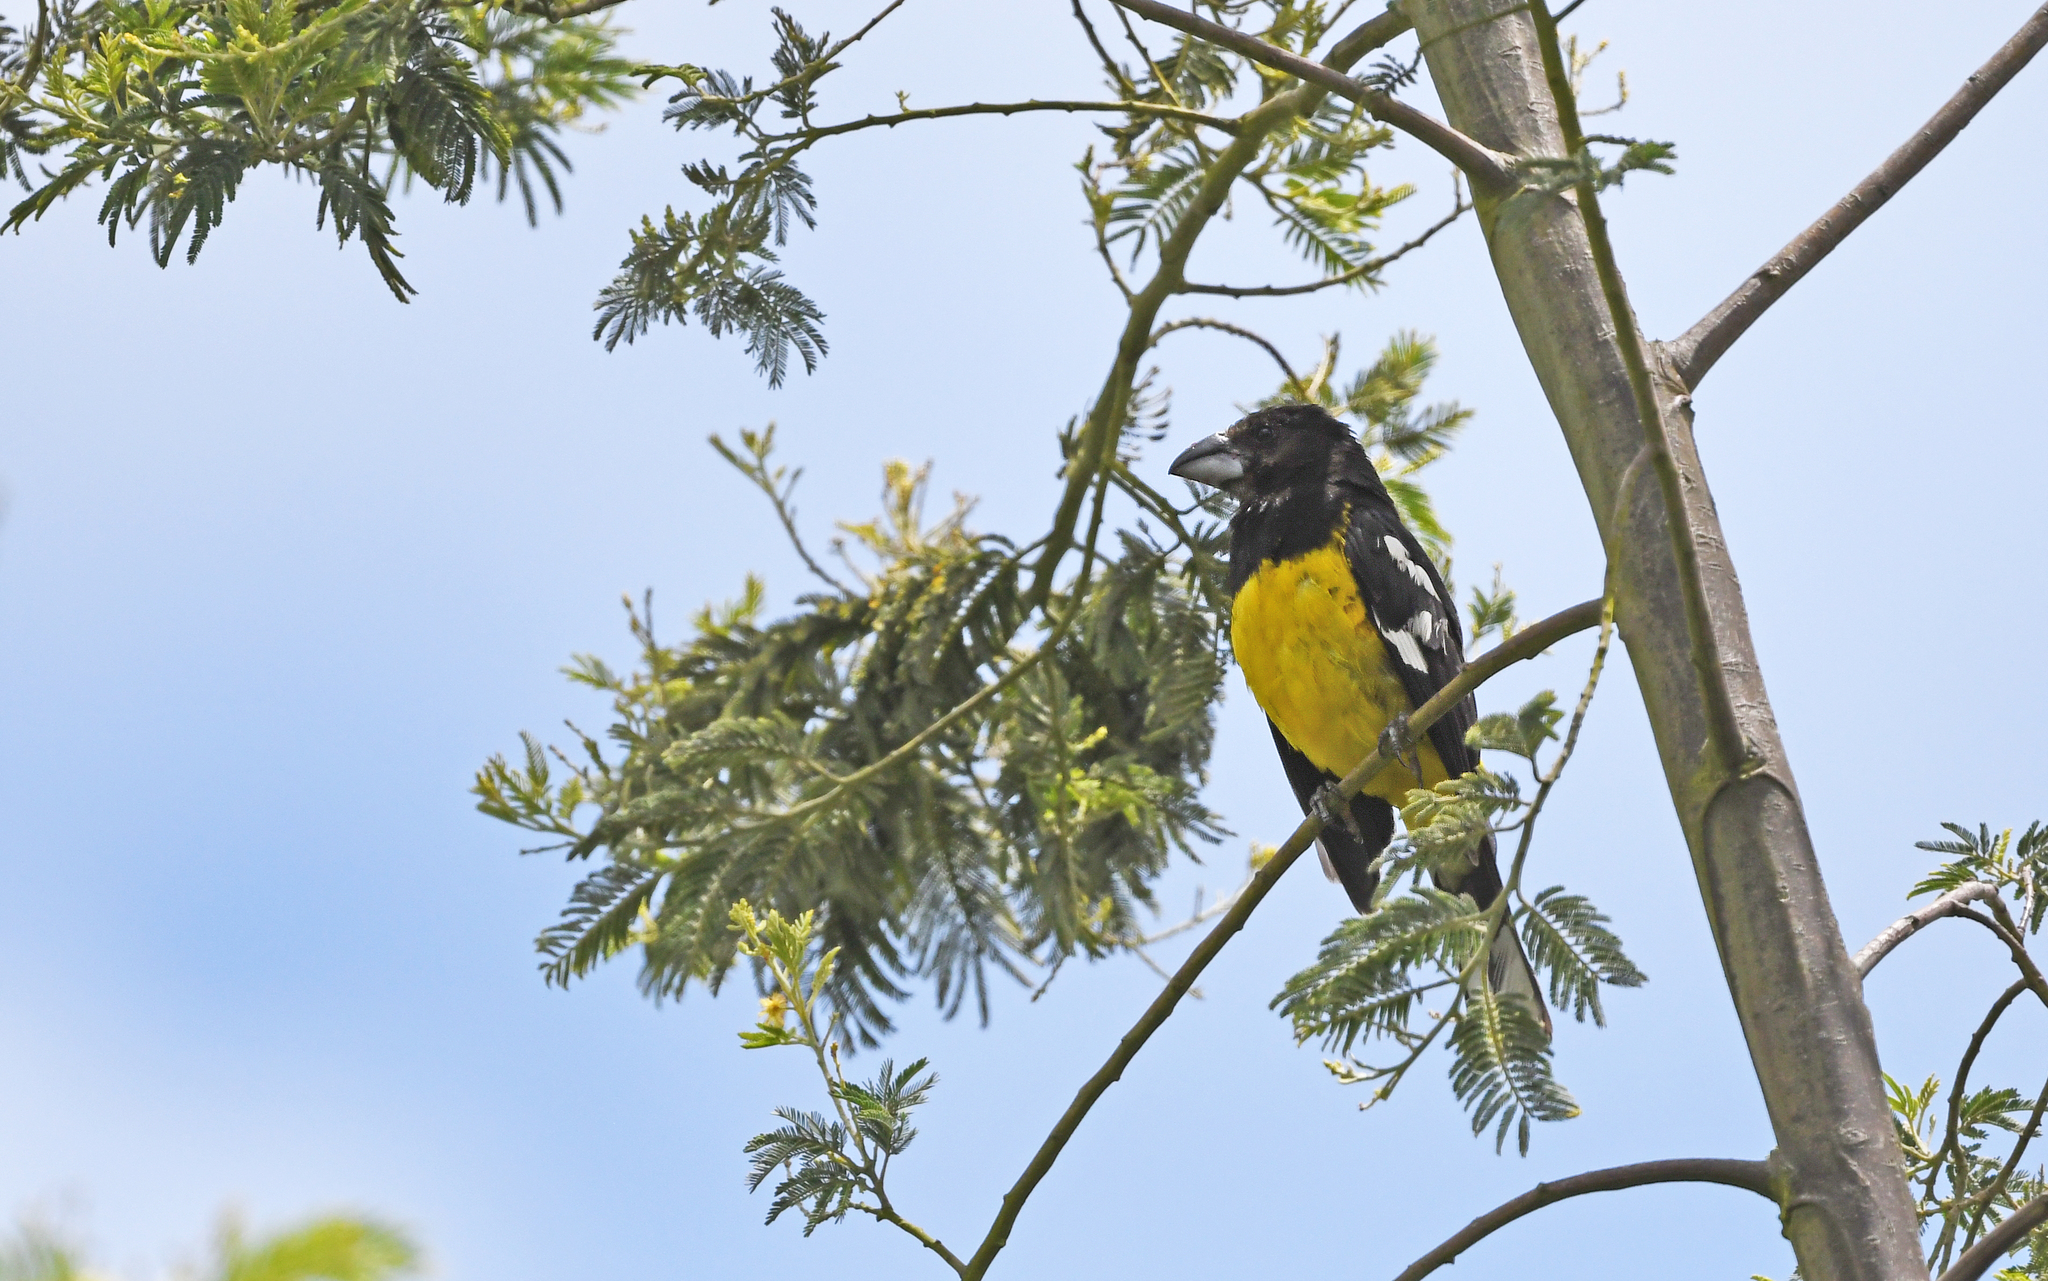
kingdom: Animalia
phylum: Chordata
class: Aves
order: Passeriformes
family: Cardinalidae
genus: Pheucticus
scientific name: Pheucticus aureoventris
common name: Black-backed grosbeak
